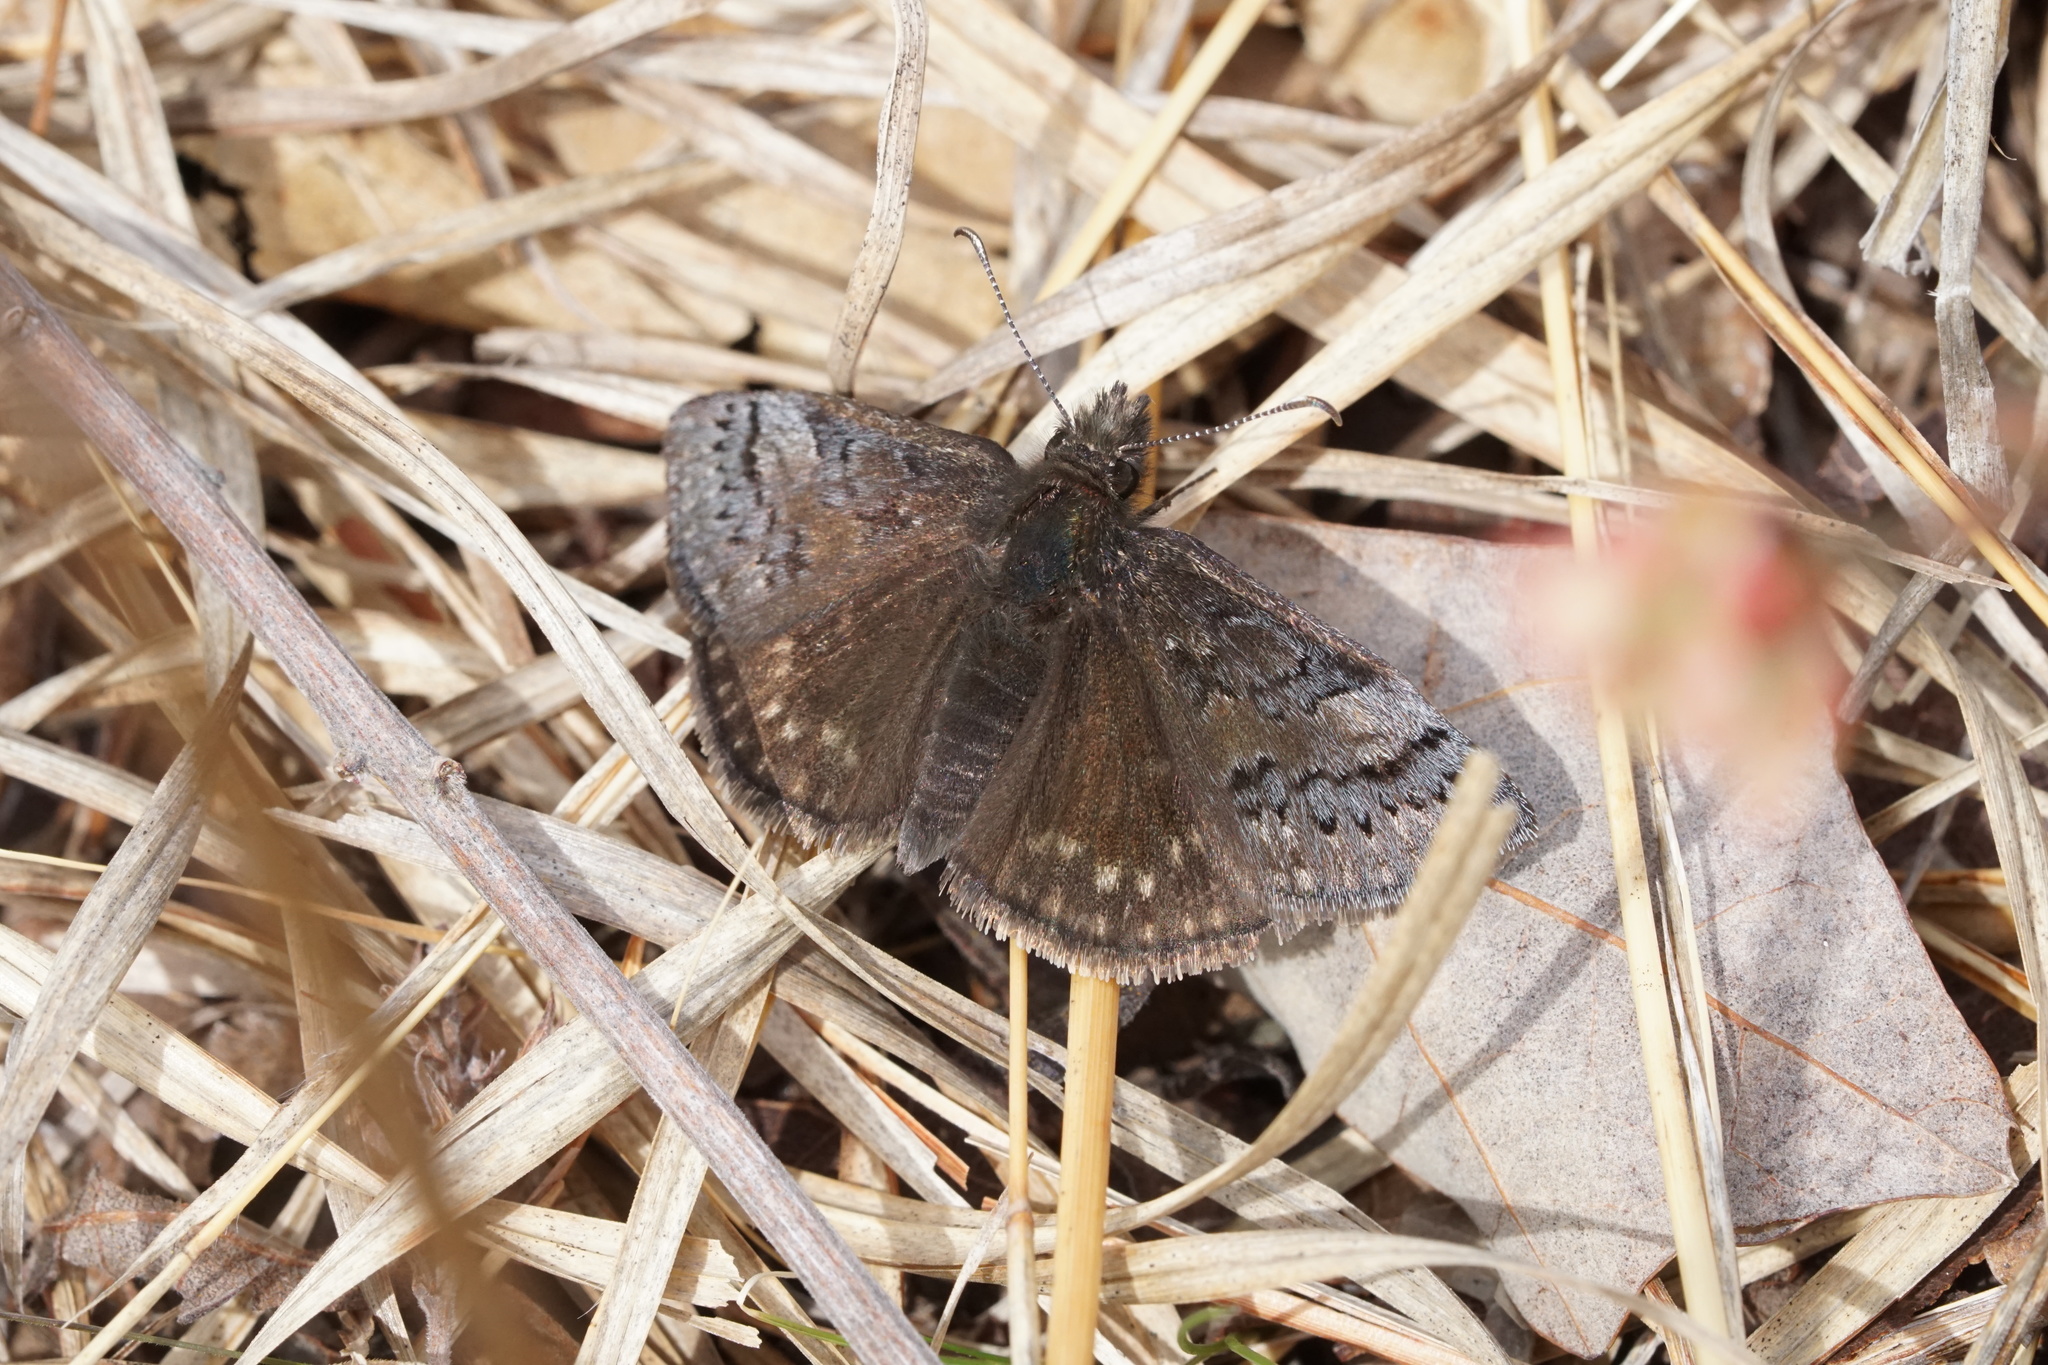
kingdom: Animalia
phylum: Arthropoda
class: Insecta
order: Lepidoptera
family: Hesperiidae
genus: Erynnis
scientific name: Erynnis brizo
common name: Sleepy duskywing
